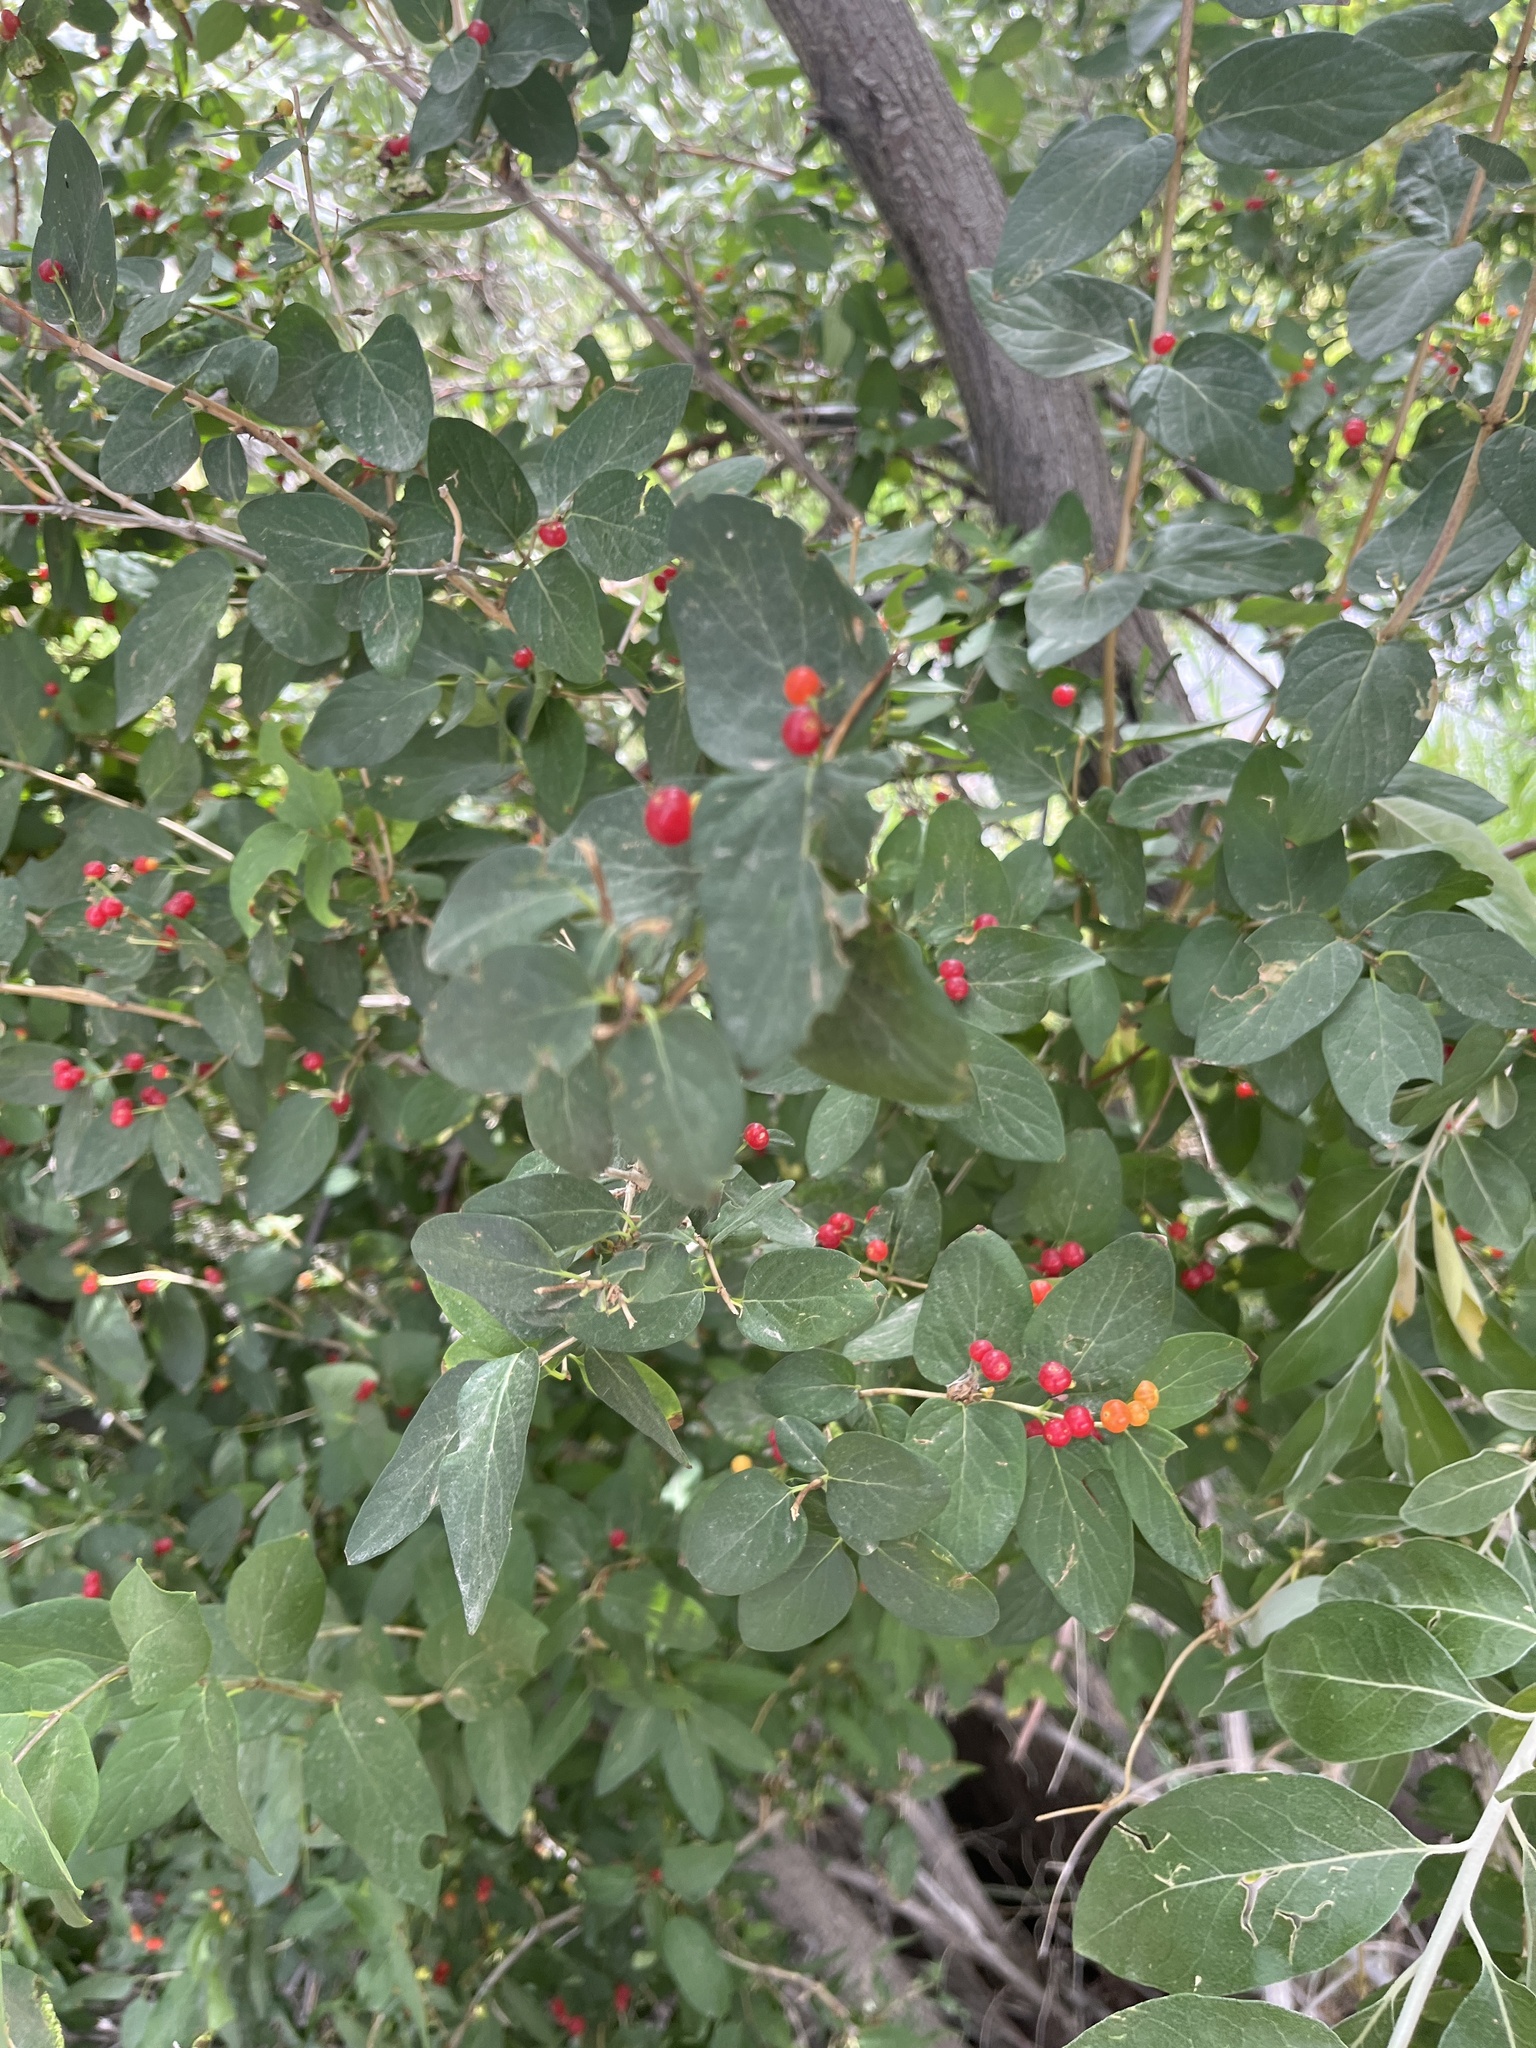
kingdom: Plantae
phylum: Tracheophyta
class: Magnoliopsida
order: Dipsacales
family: Caprifoliaceae
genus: Lonicera
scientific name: Lonicera tatarica
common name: Tatarian honeysuckle
